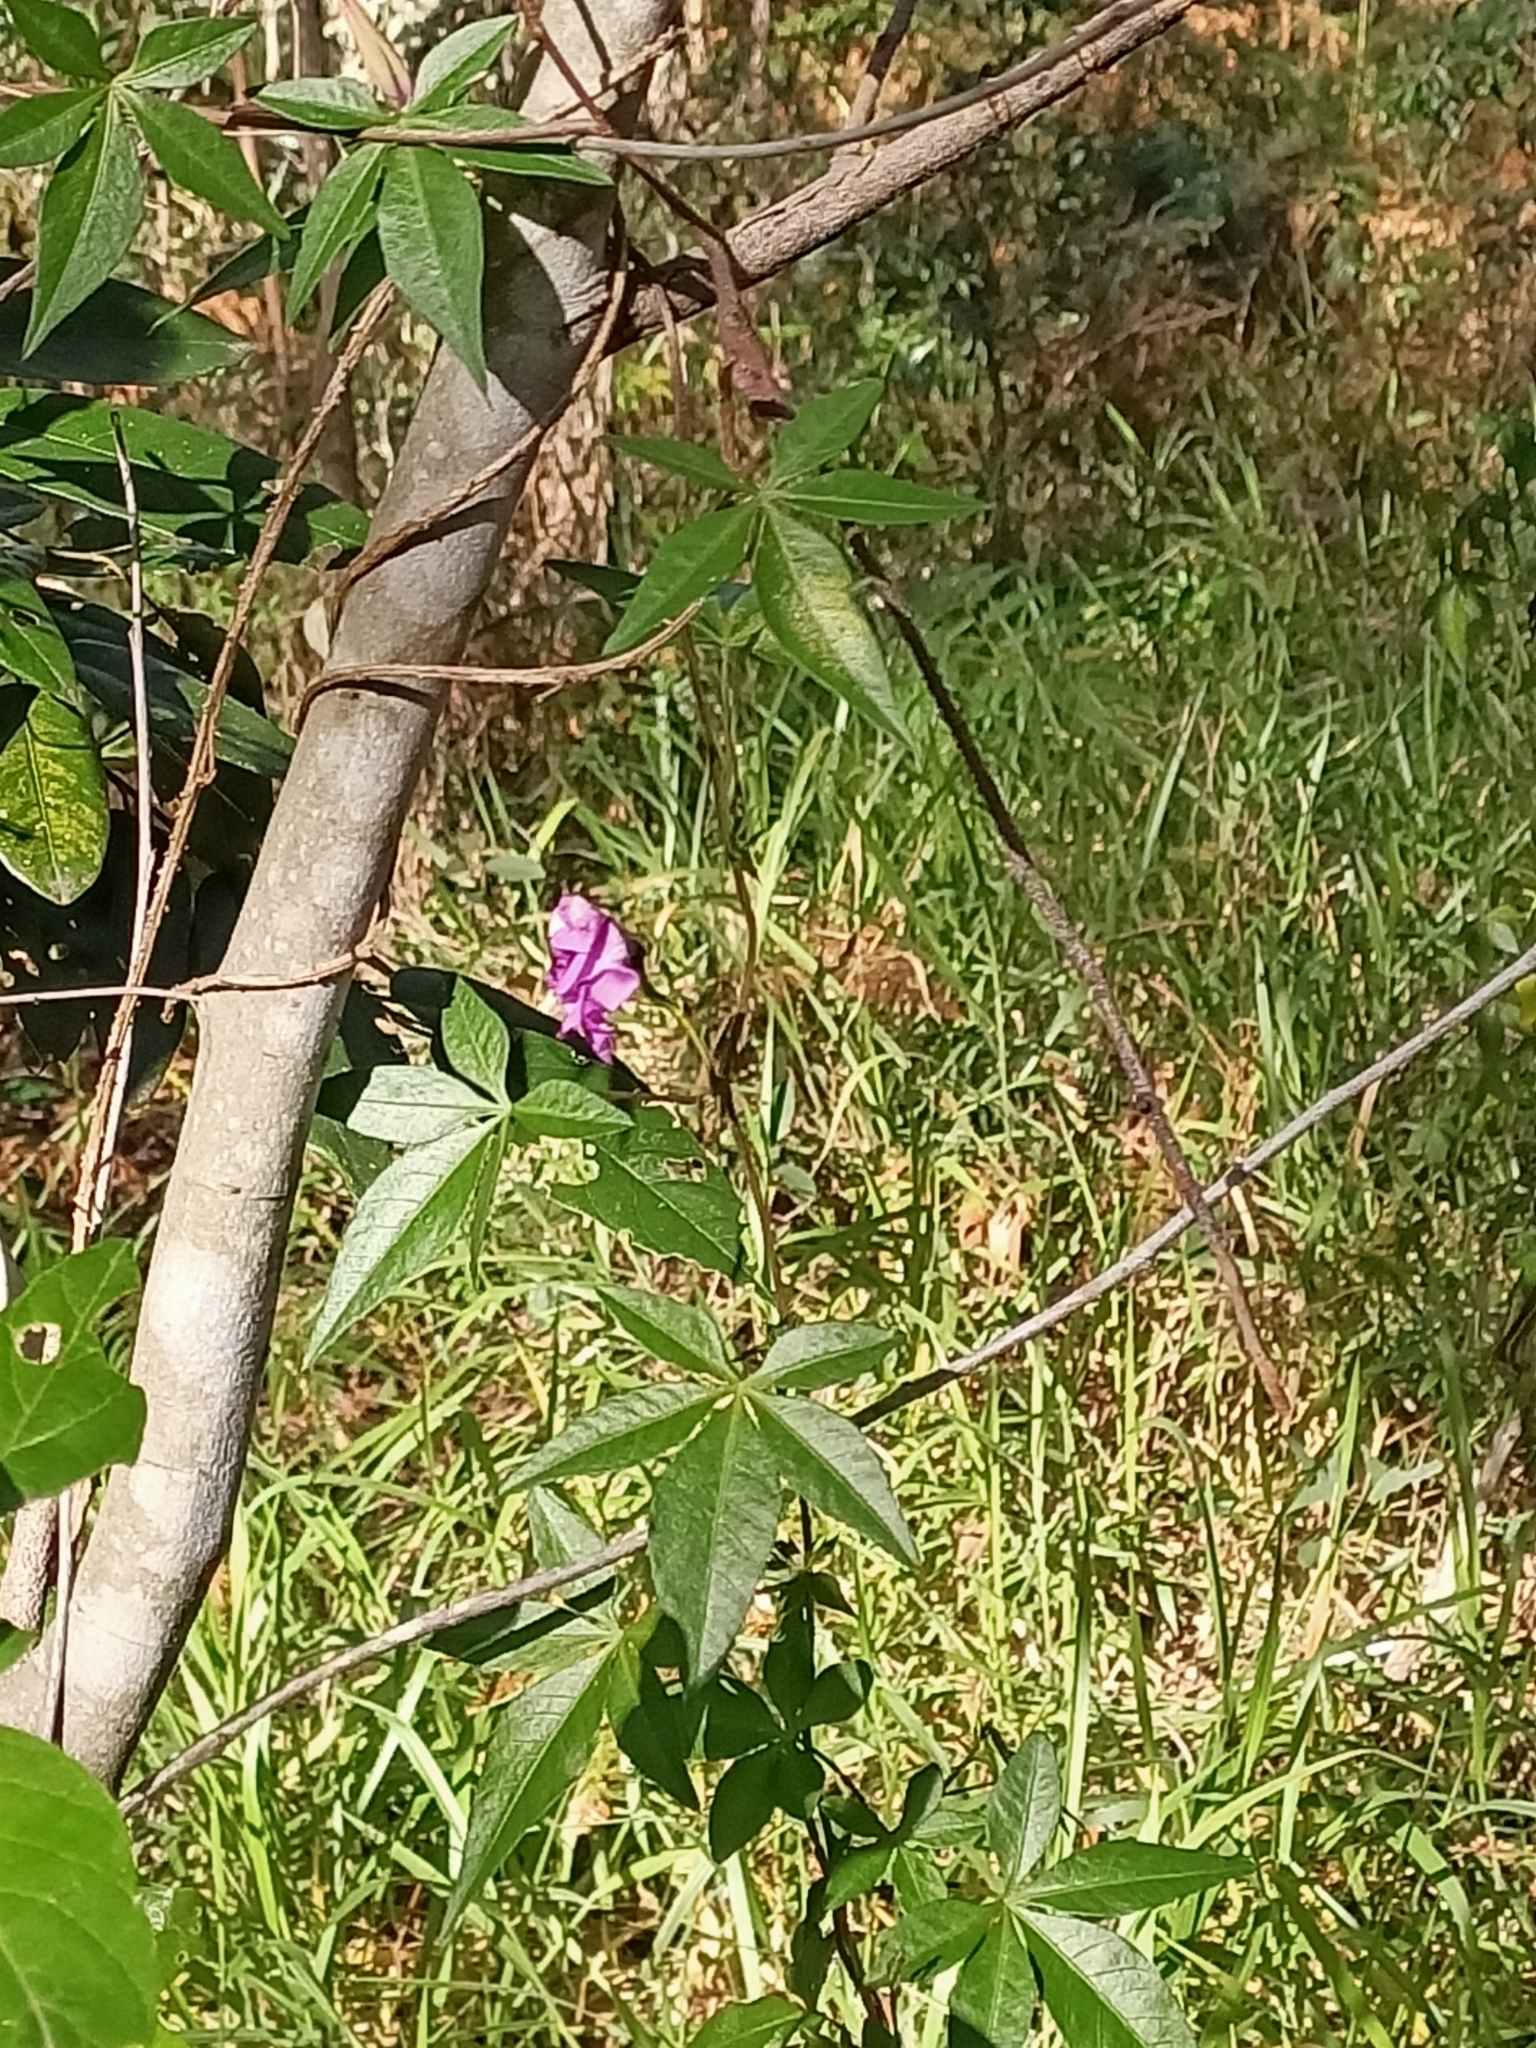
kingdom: Plantae
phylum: Tracheophyta
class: Magnoliopsida
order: Solanales
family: Convolvulaceae
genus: Ipomoea
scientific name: Ipomoea cairica
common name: Mile a minute vine
